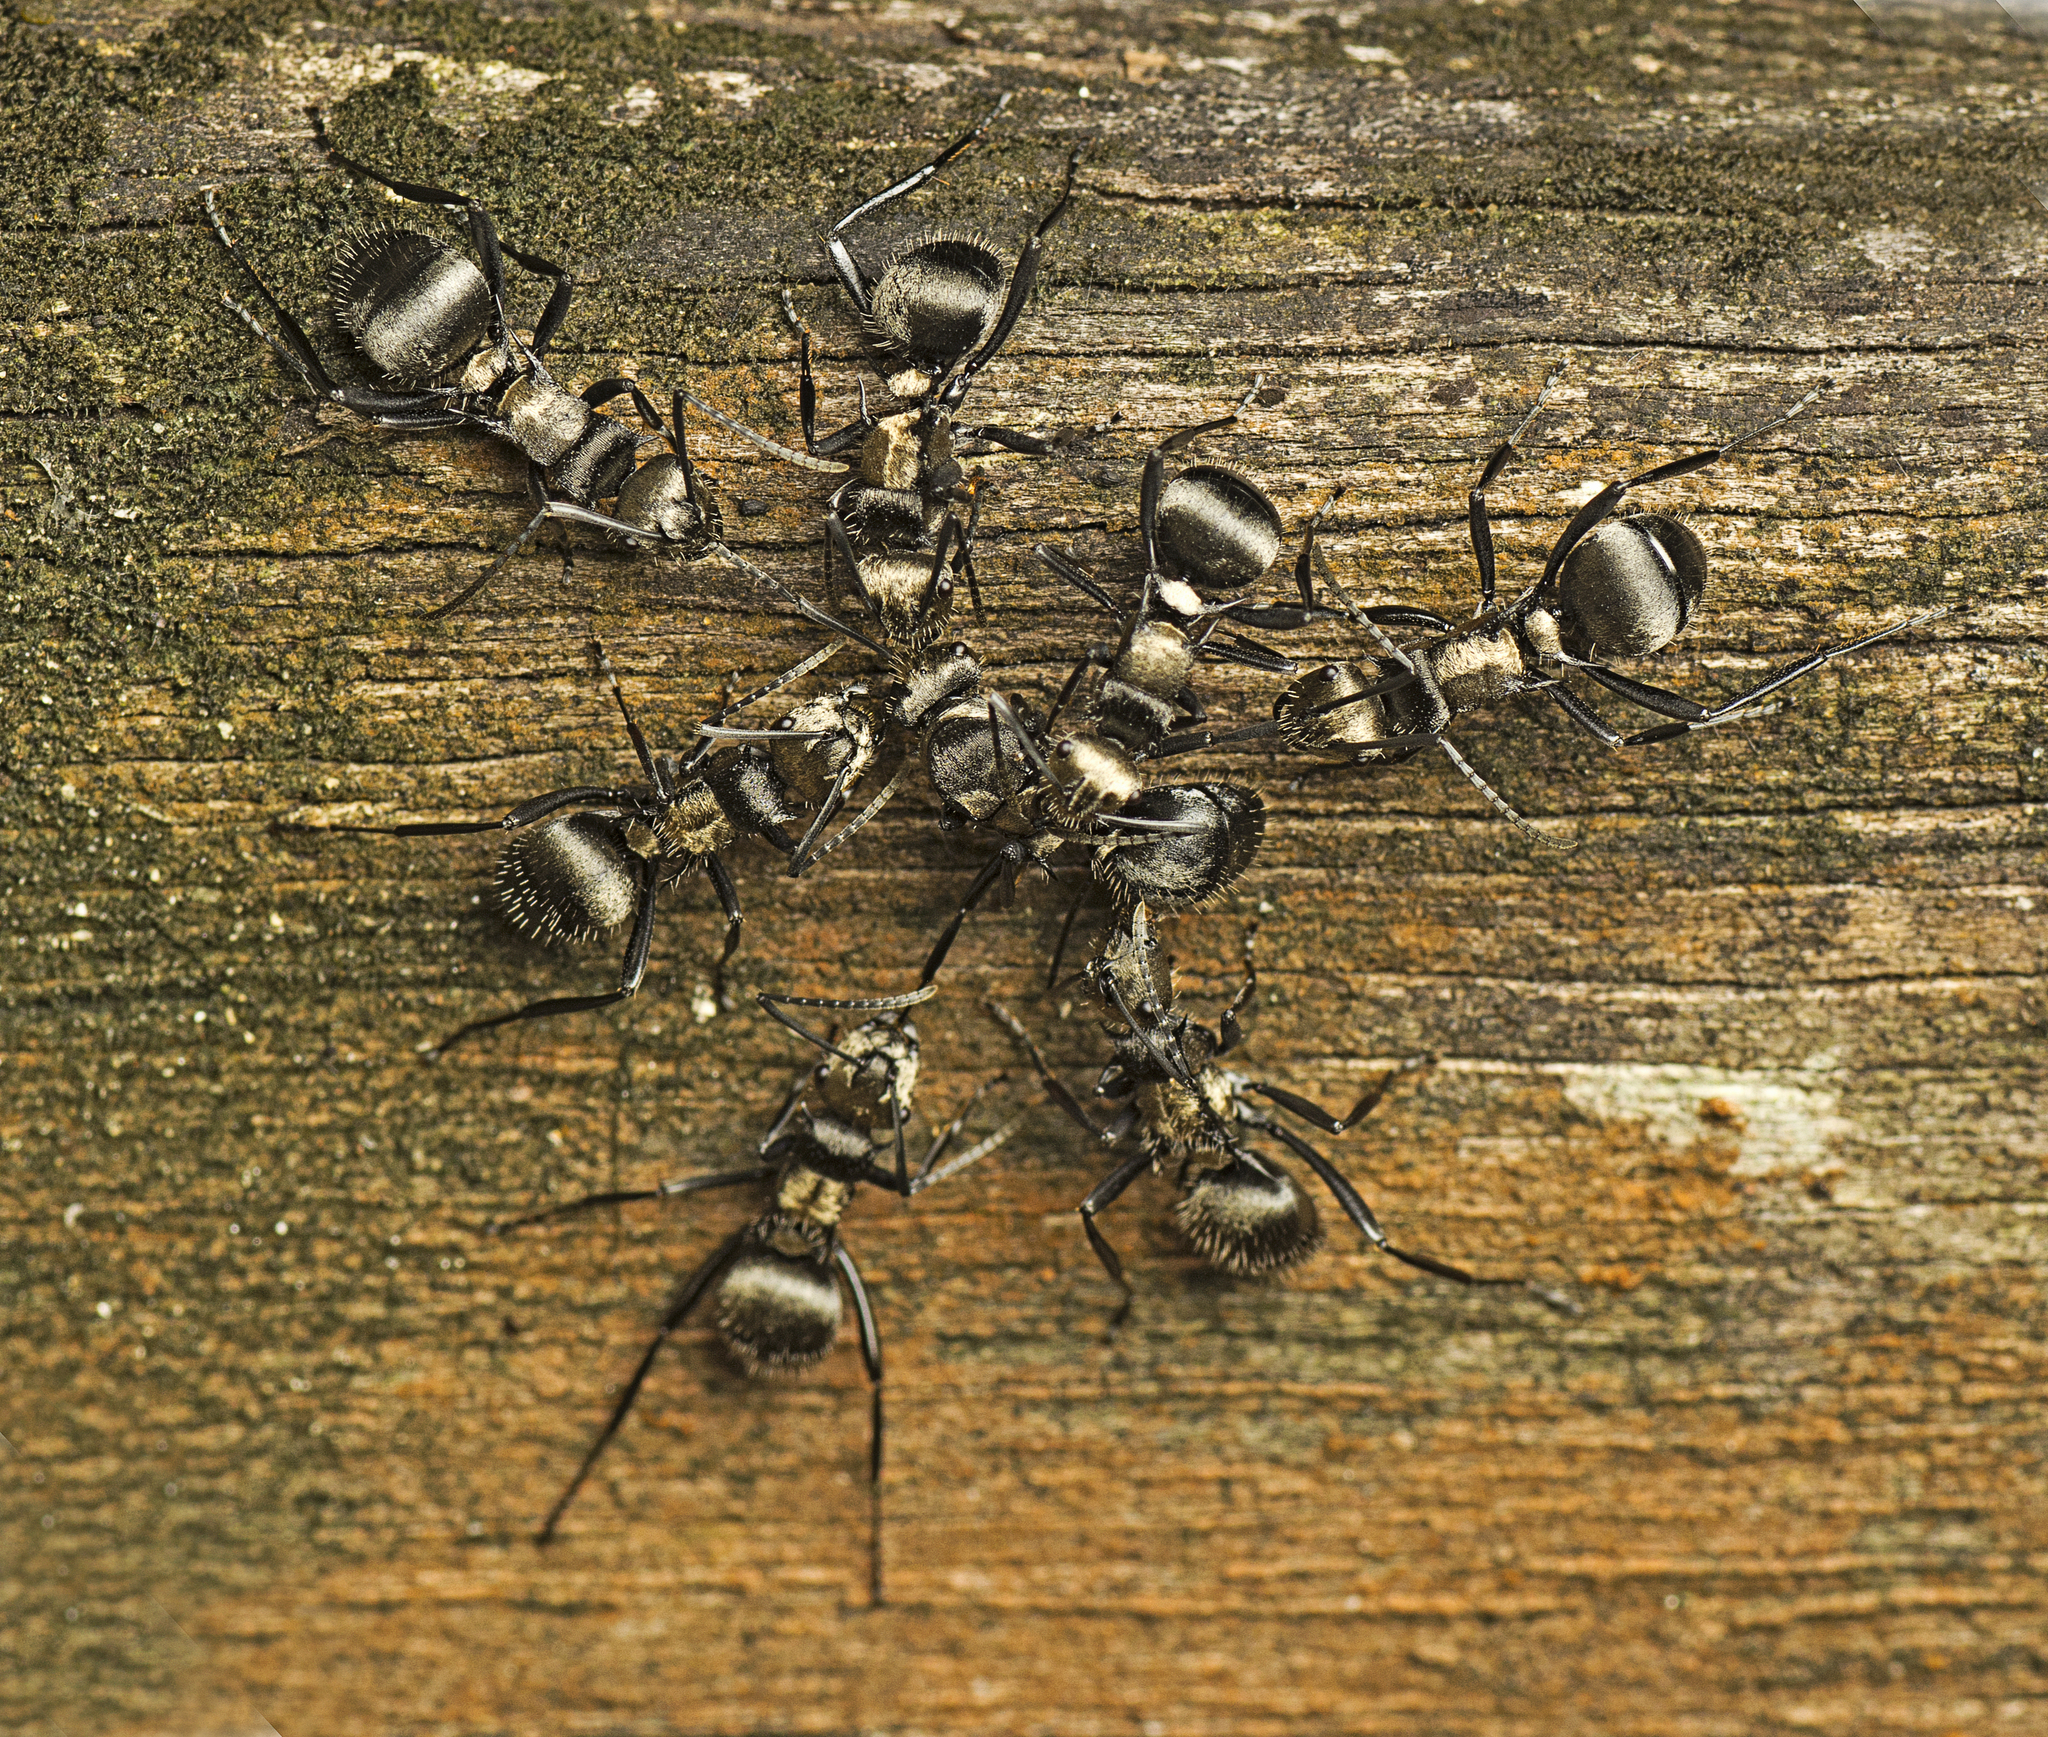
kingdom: Animalia
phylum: Arthropoda
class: Insecta
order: Hymenoptera
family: Formicidae
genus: Polyrhachis
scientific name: Polyrhachis daemeli
